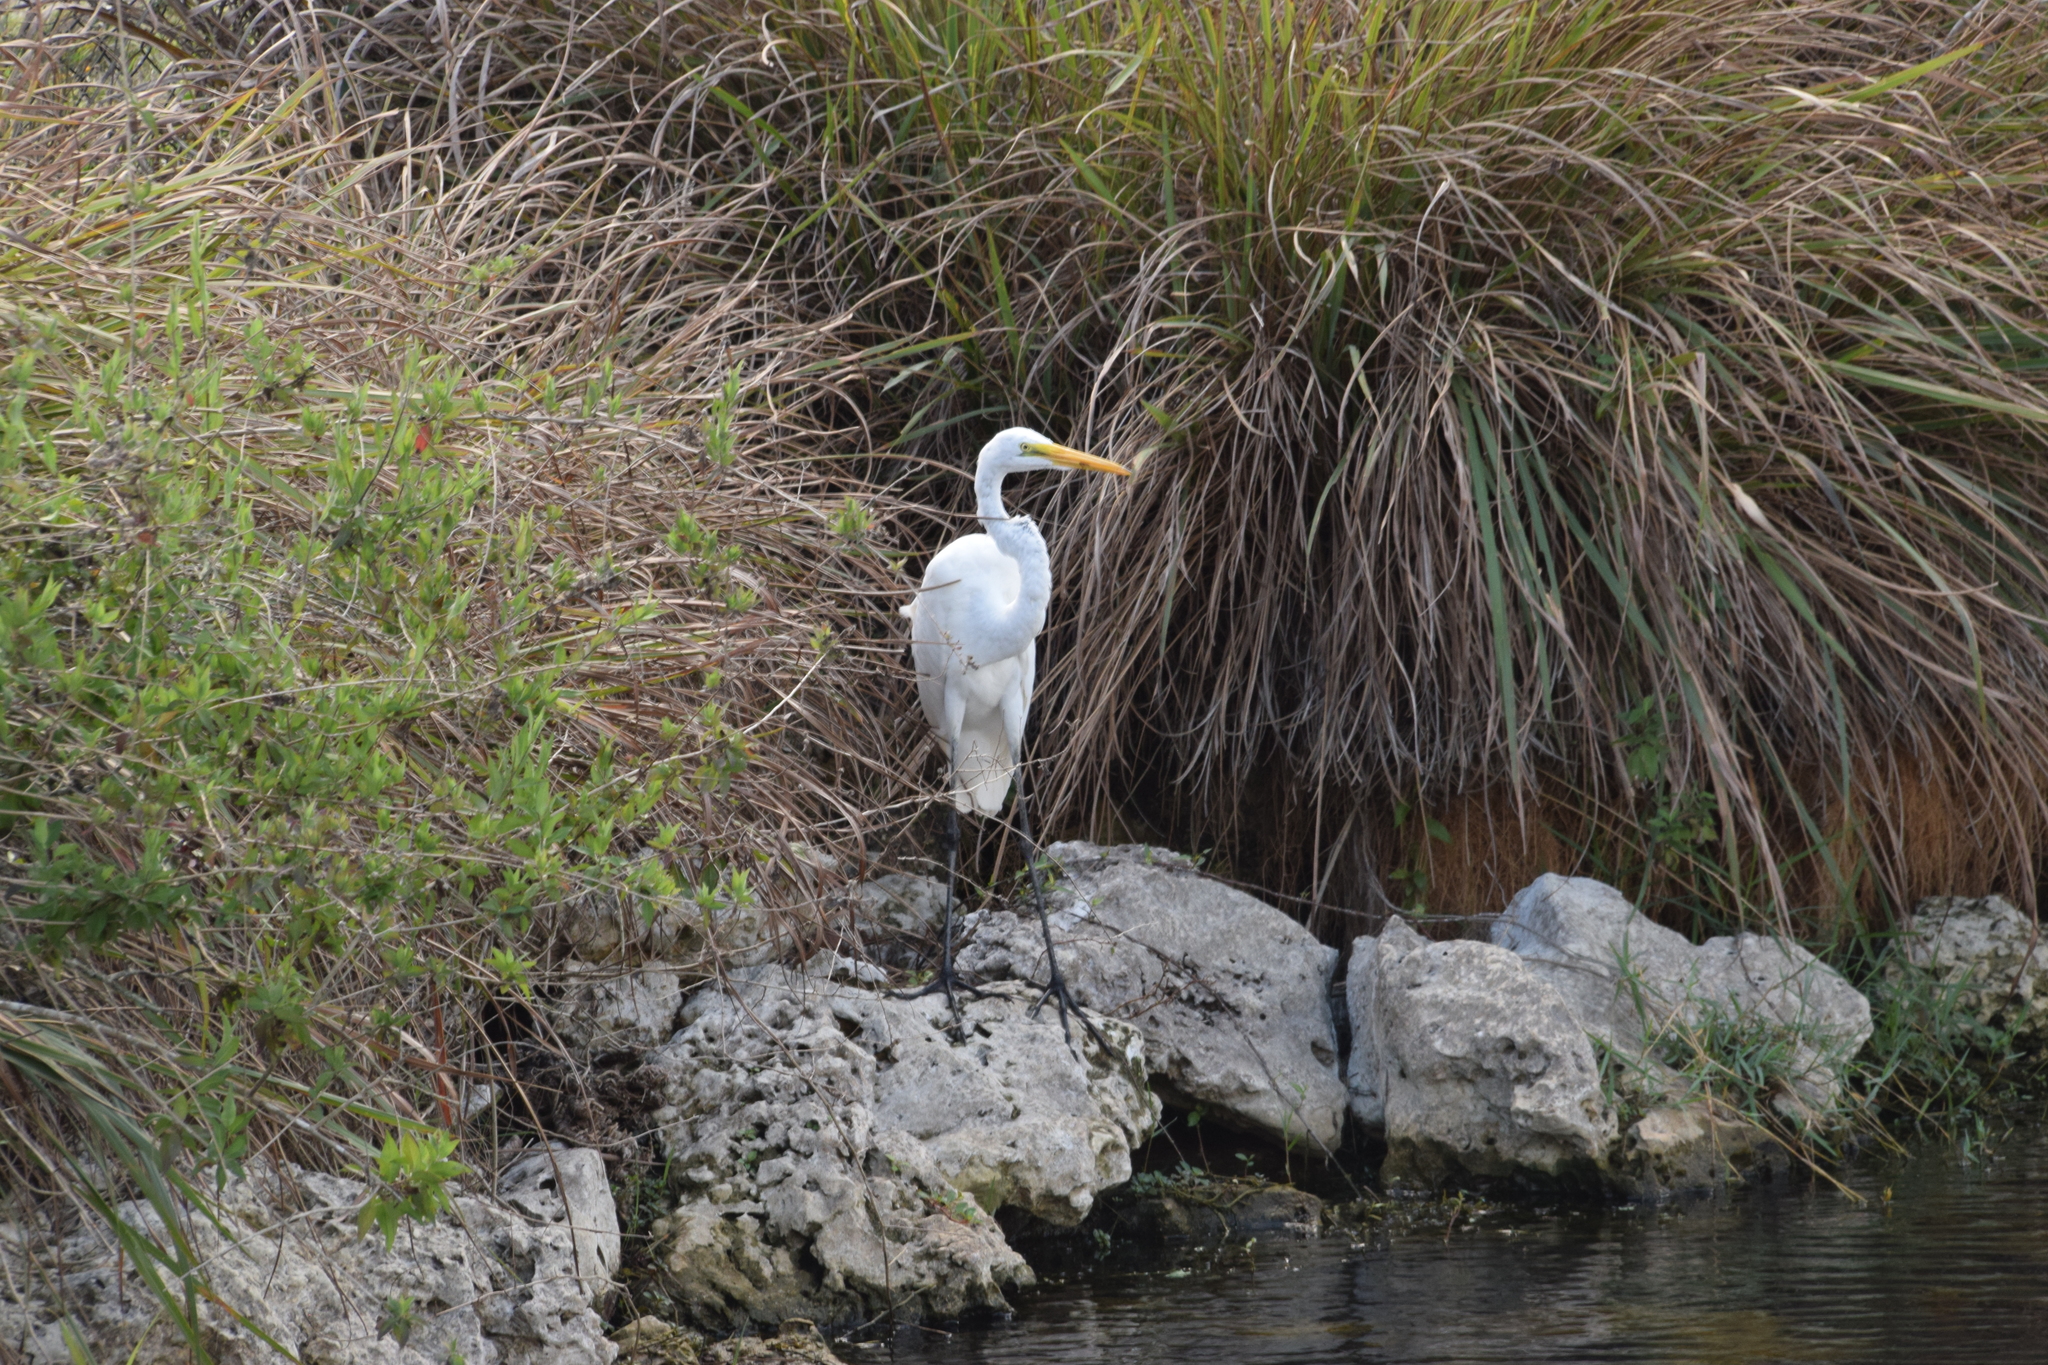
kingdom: Animalia
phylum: Chordata
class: Aves
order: Pelecaniformes
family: Ardeidae
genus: Ardea
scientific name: Ardea alba
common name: Great egret
